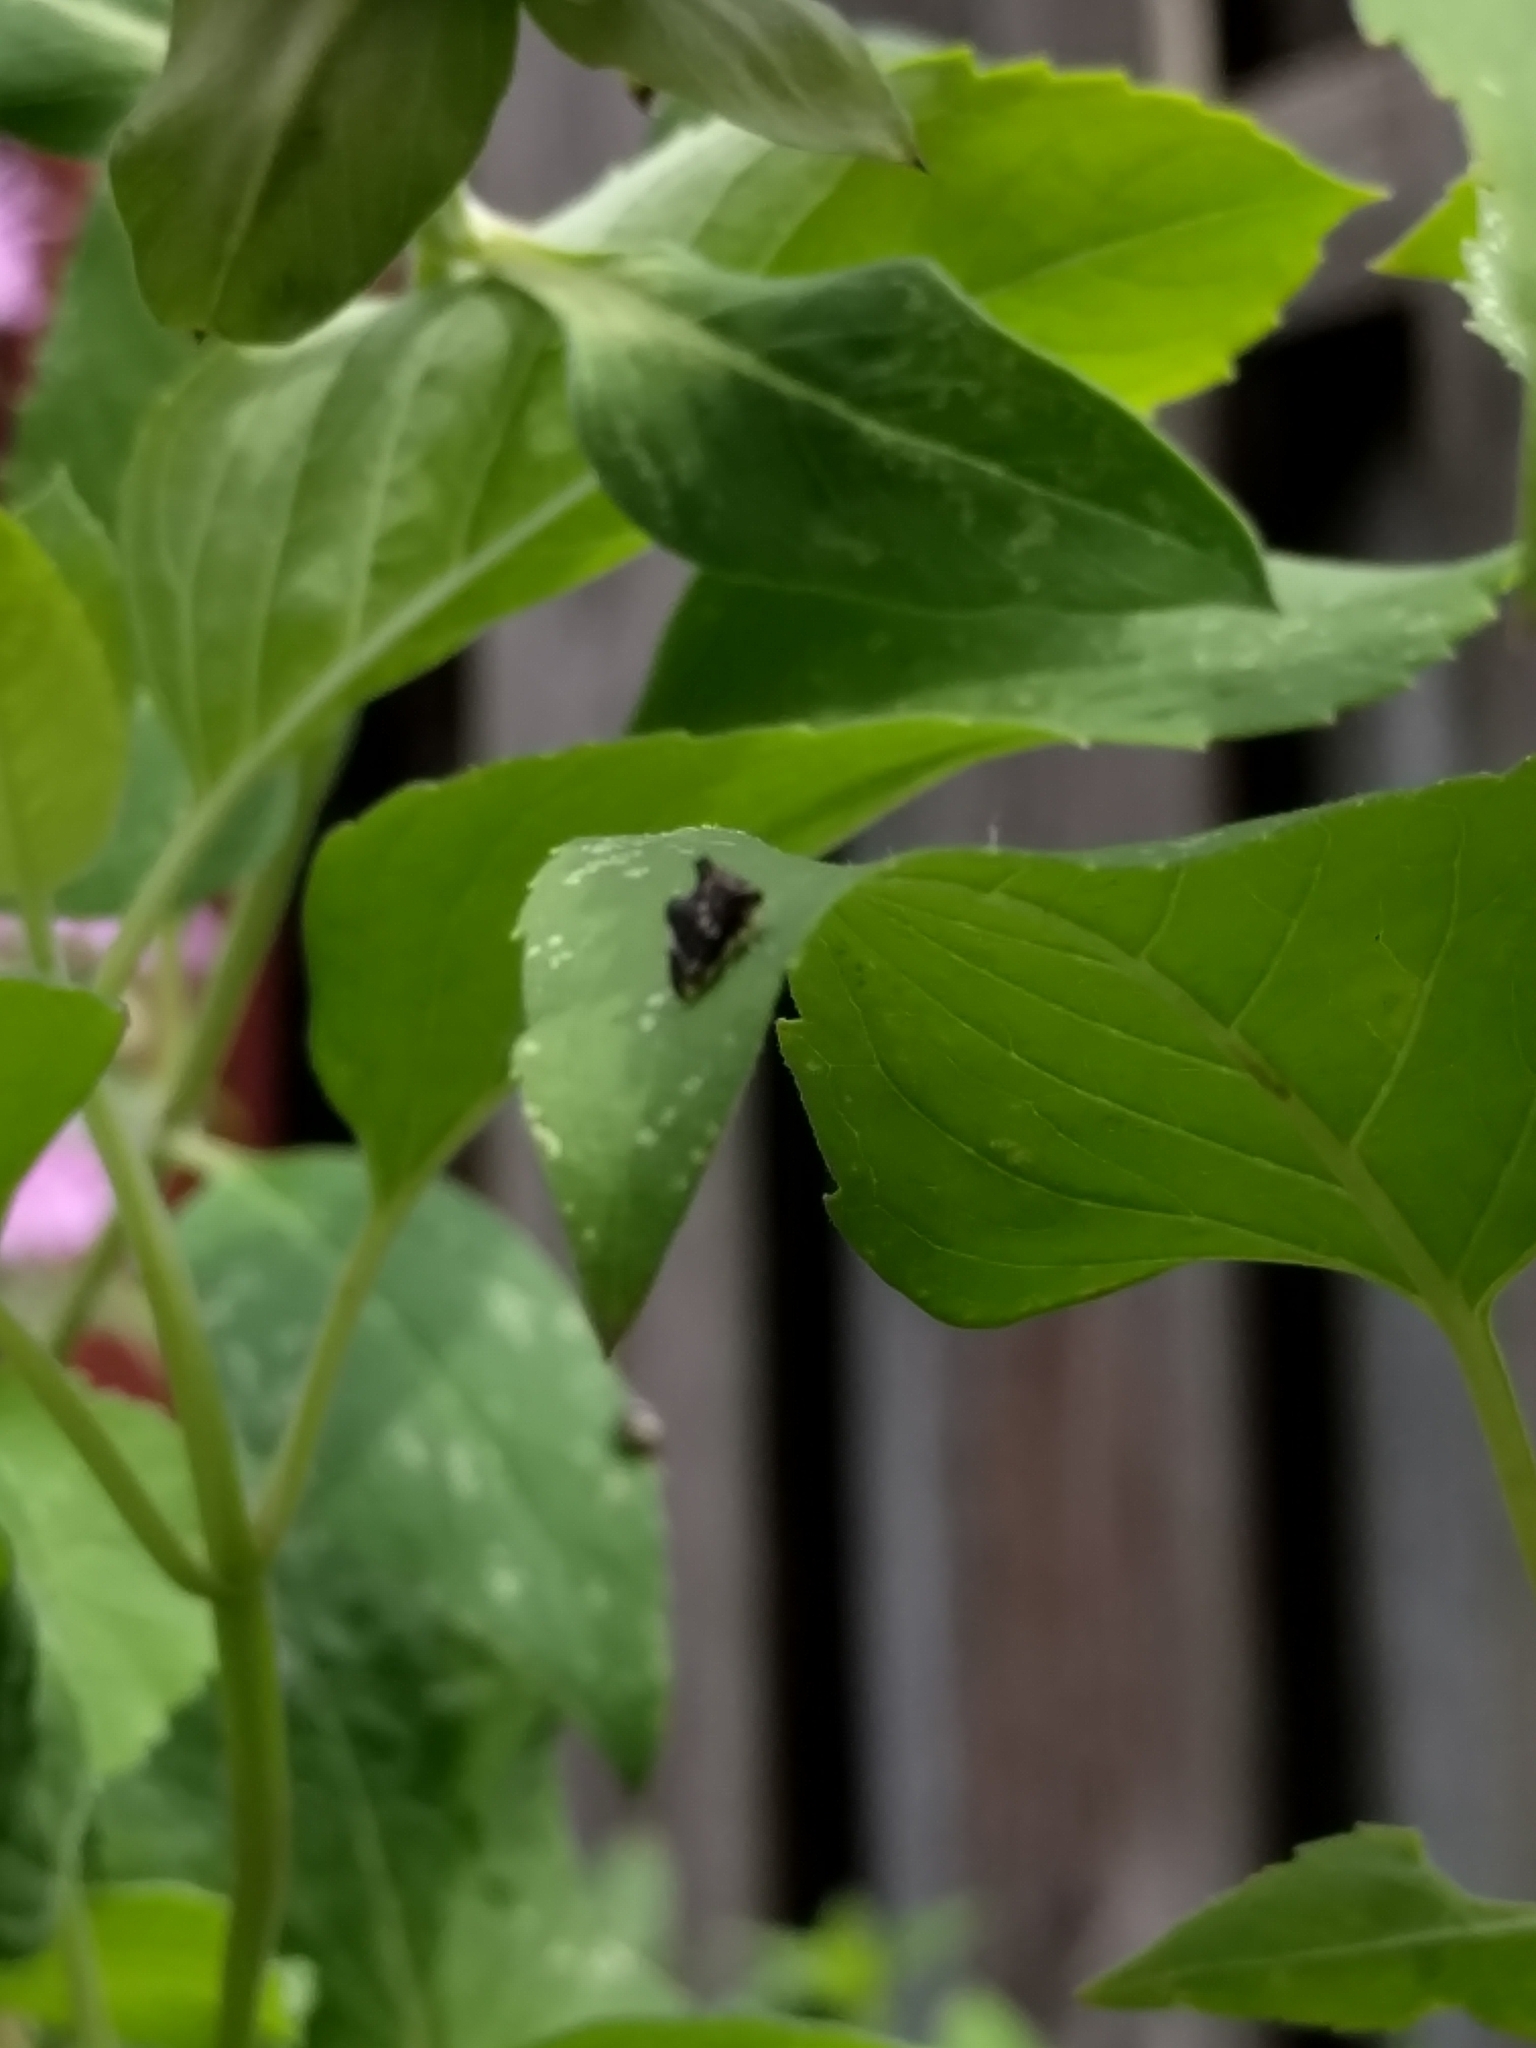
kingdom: Animalia
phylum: Arthropoda
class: Insecta
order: Hemiptera
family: Membracidae
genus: Entylia
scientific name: Entylia carinata
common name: Keeled treehopper
